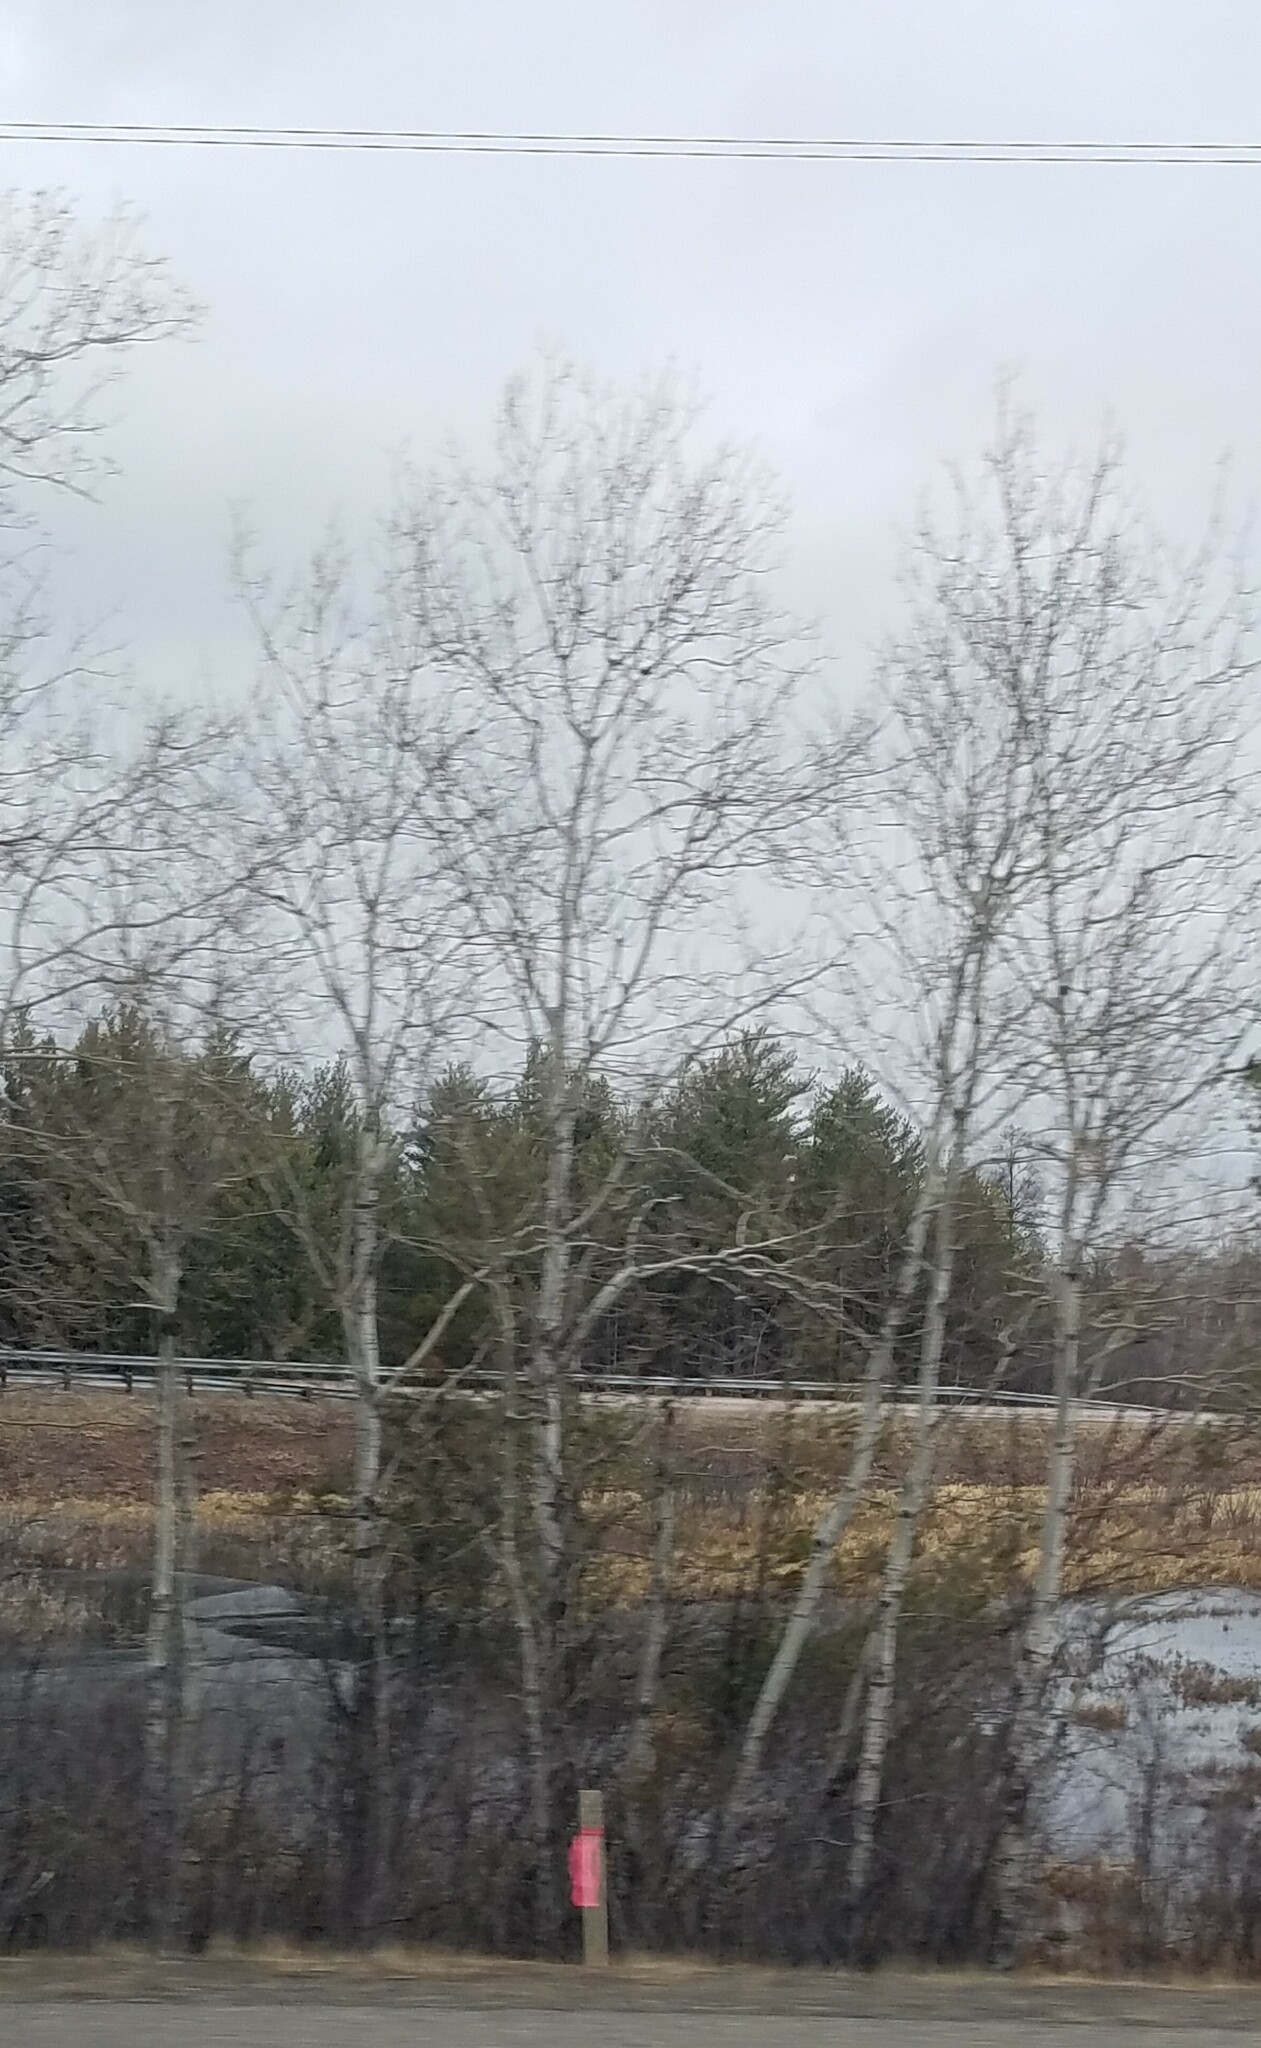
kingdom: Plantae
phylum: Tracheophyta
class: Magnoliopsida
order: Malpighiales
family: Salicaceae
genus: Populus
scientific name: Populus tremuloides
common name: Quaking aspen
